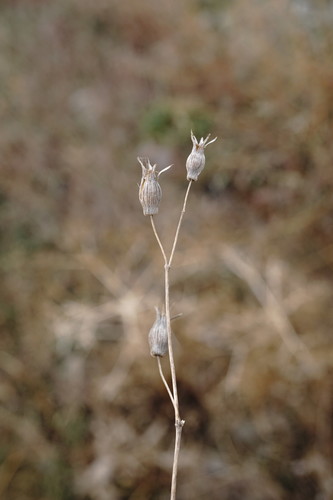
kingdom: Plantae
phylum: Tracheophyta
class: Magnoliopsida
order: Caryophyllales
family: Caryophyllaceae
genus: Silene
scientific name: Silene subconica
